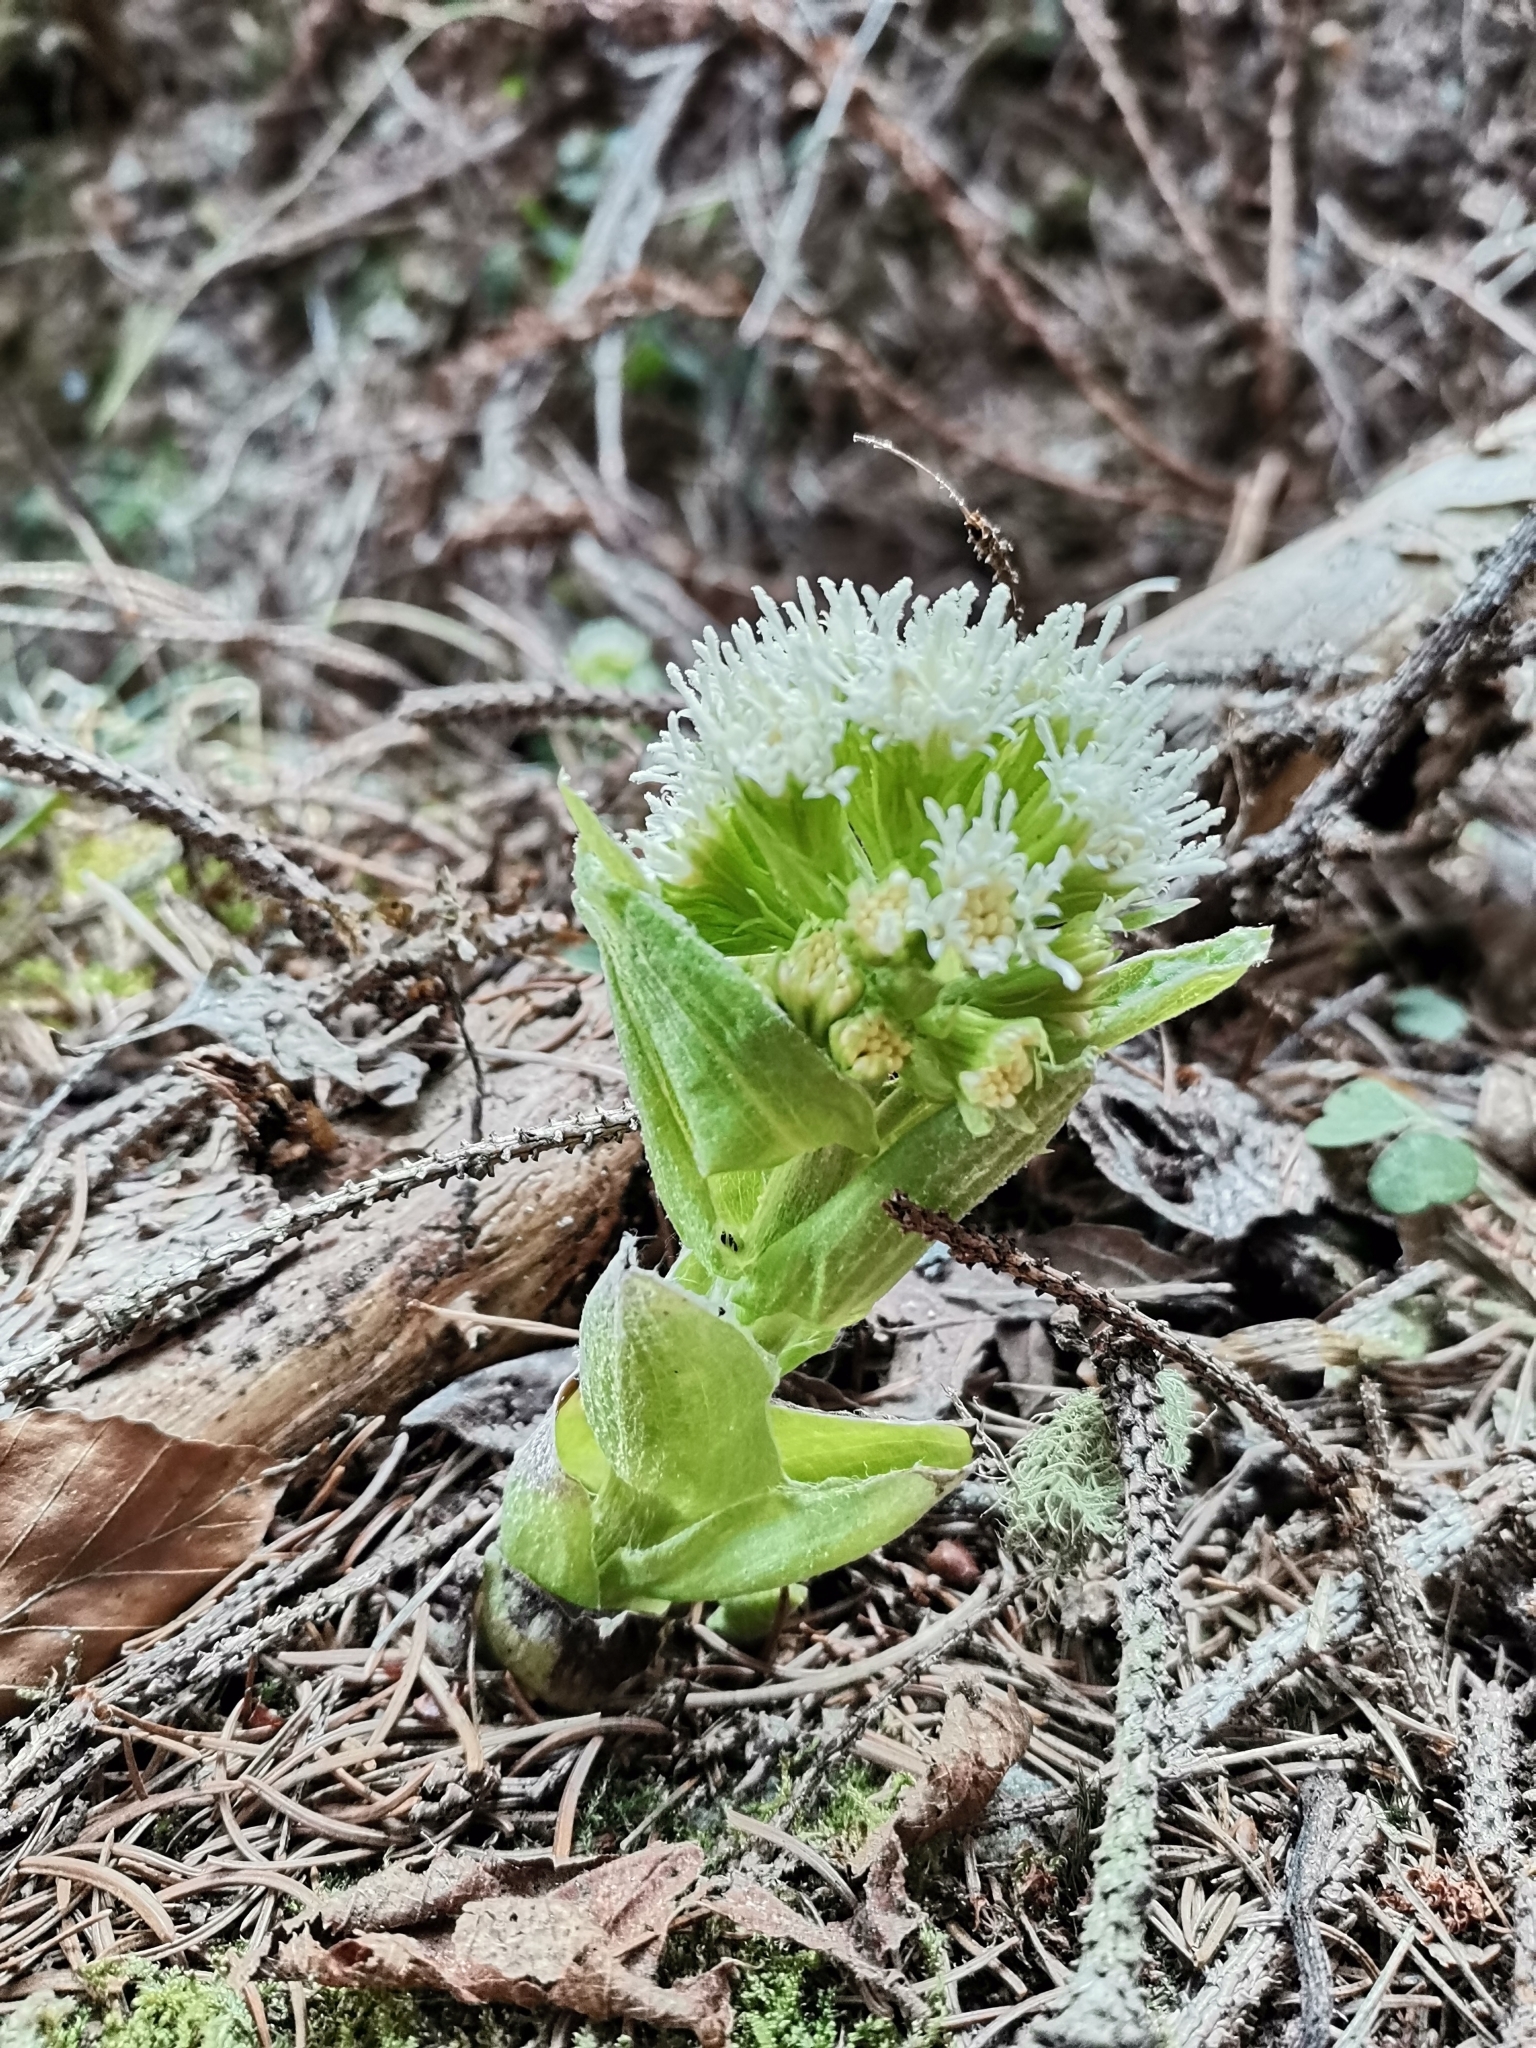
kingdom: Plantae
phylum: Tracheophyta
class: Magnoliopsida
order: Asterales
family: Asteraceae
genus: Petasites
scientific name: Petasites albus
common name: White butterbur
